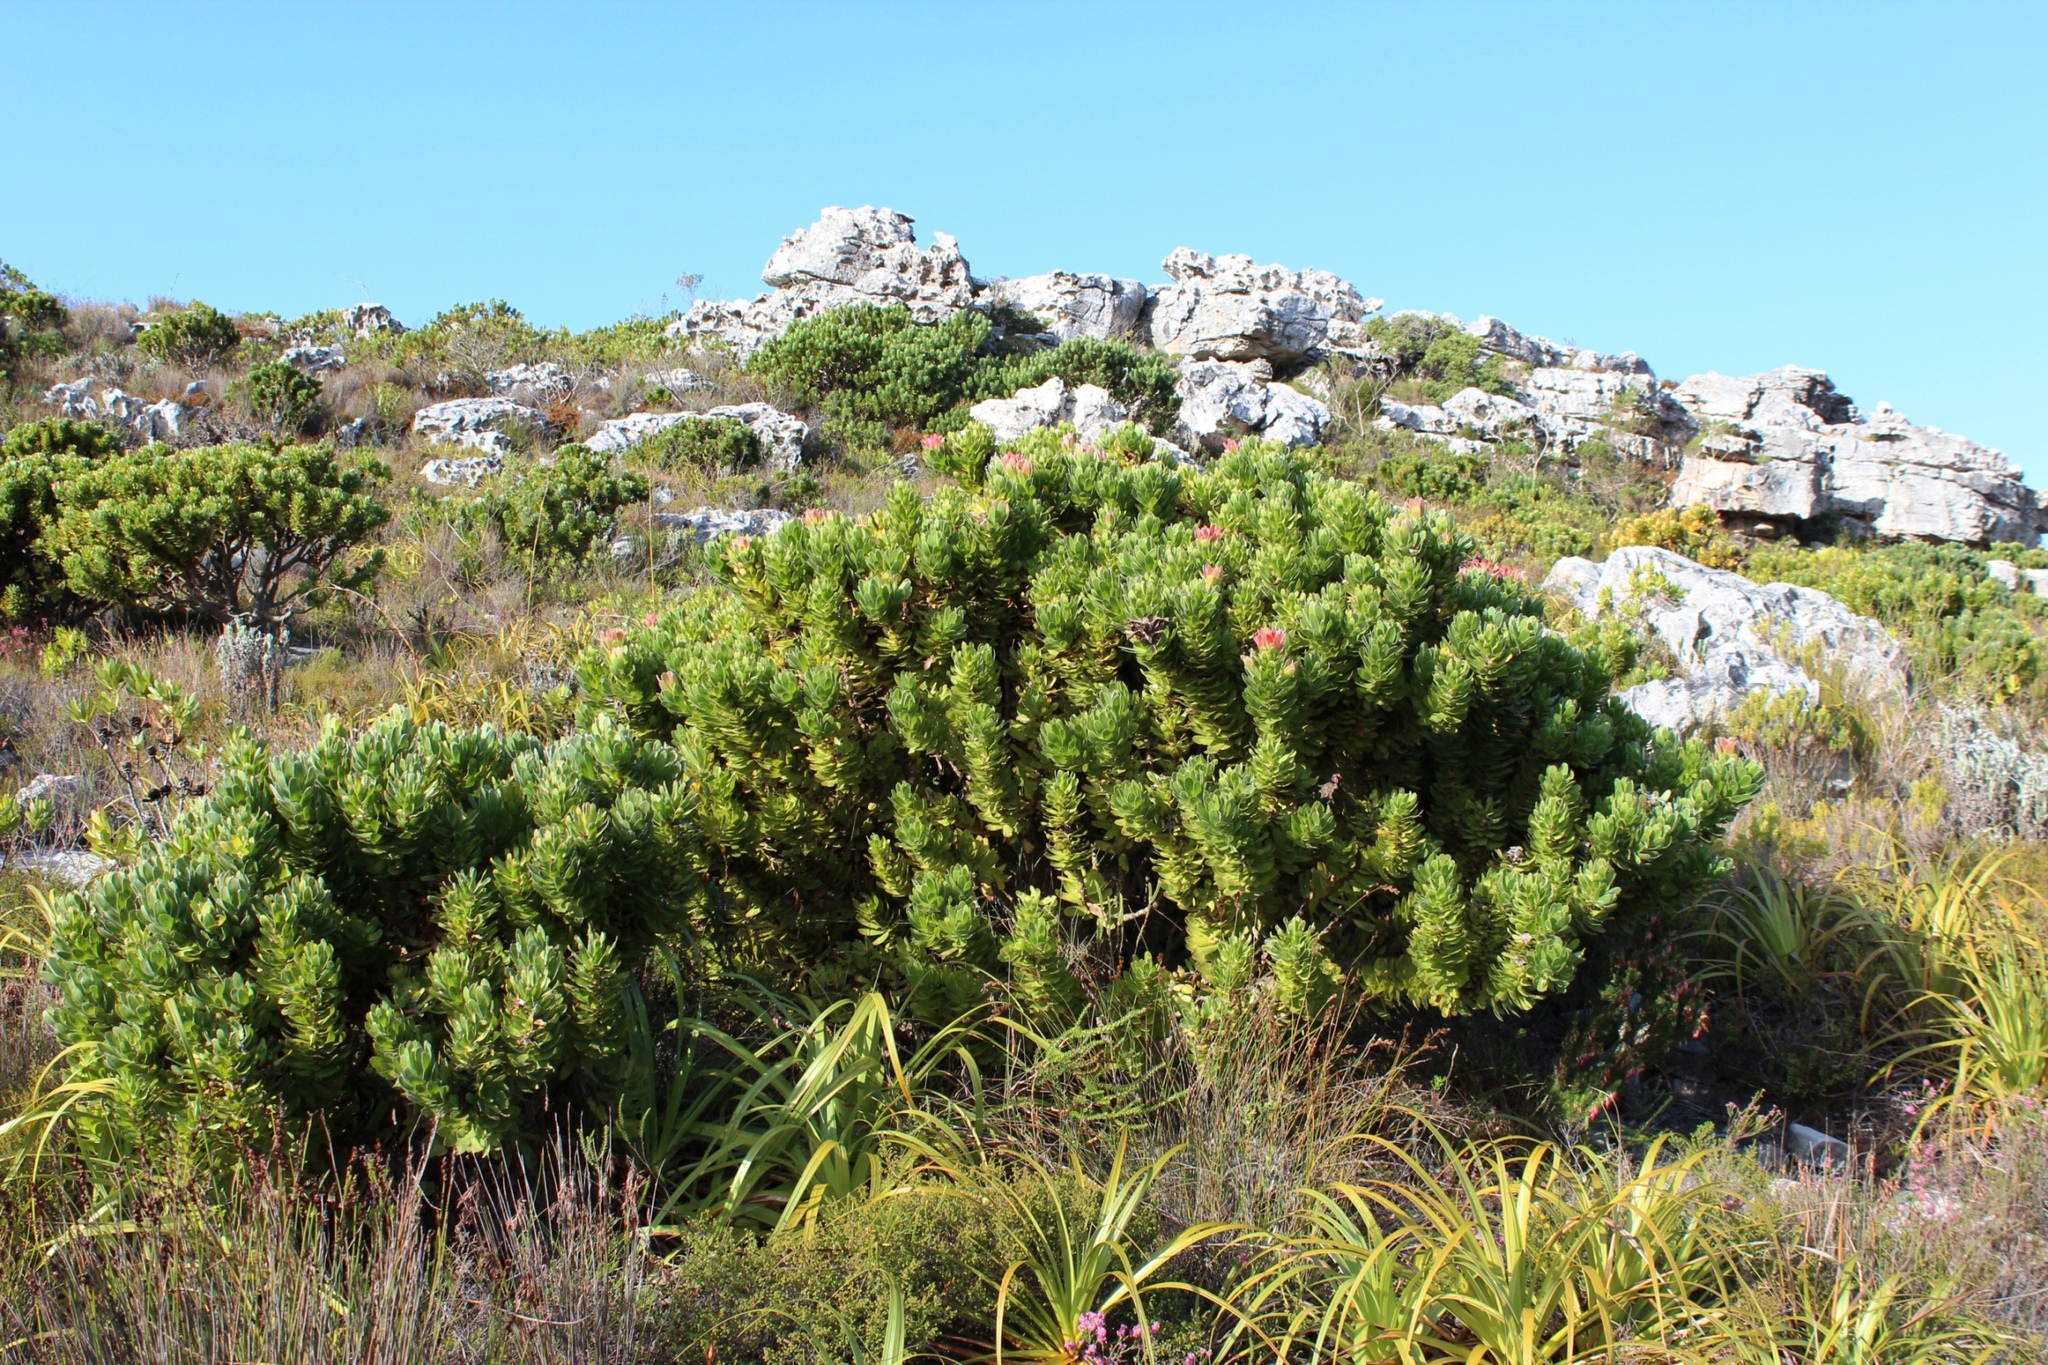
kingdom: Plantae
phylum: Tracheophyta
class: Magnoliopsida
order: Proteales
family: Proteaceae
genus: Mimetes
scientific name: Mimetes fimbriifolius
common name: Fringed bottlebrush
